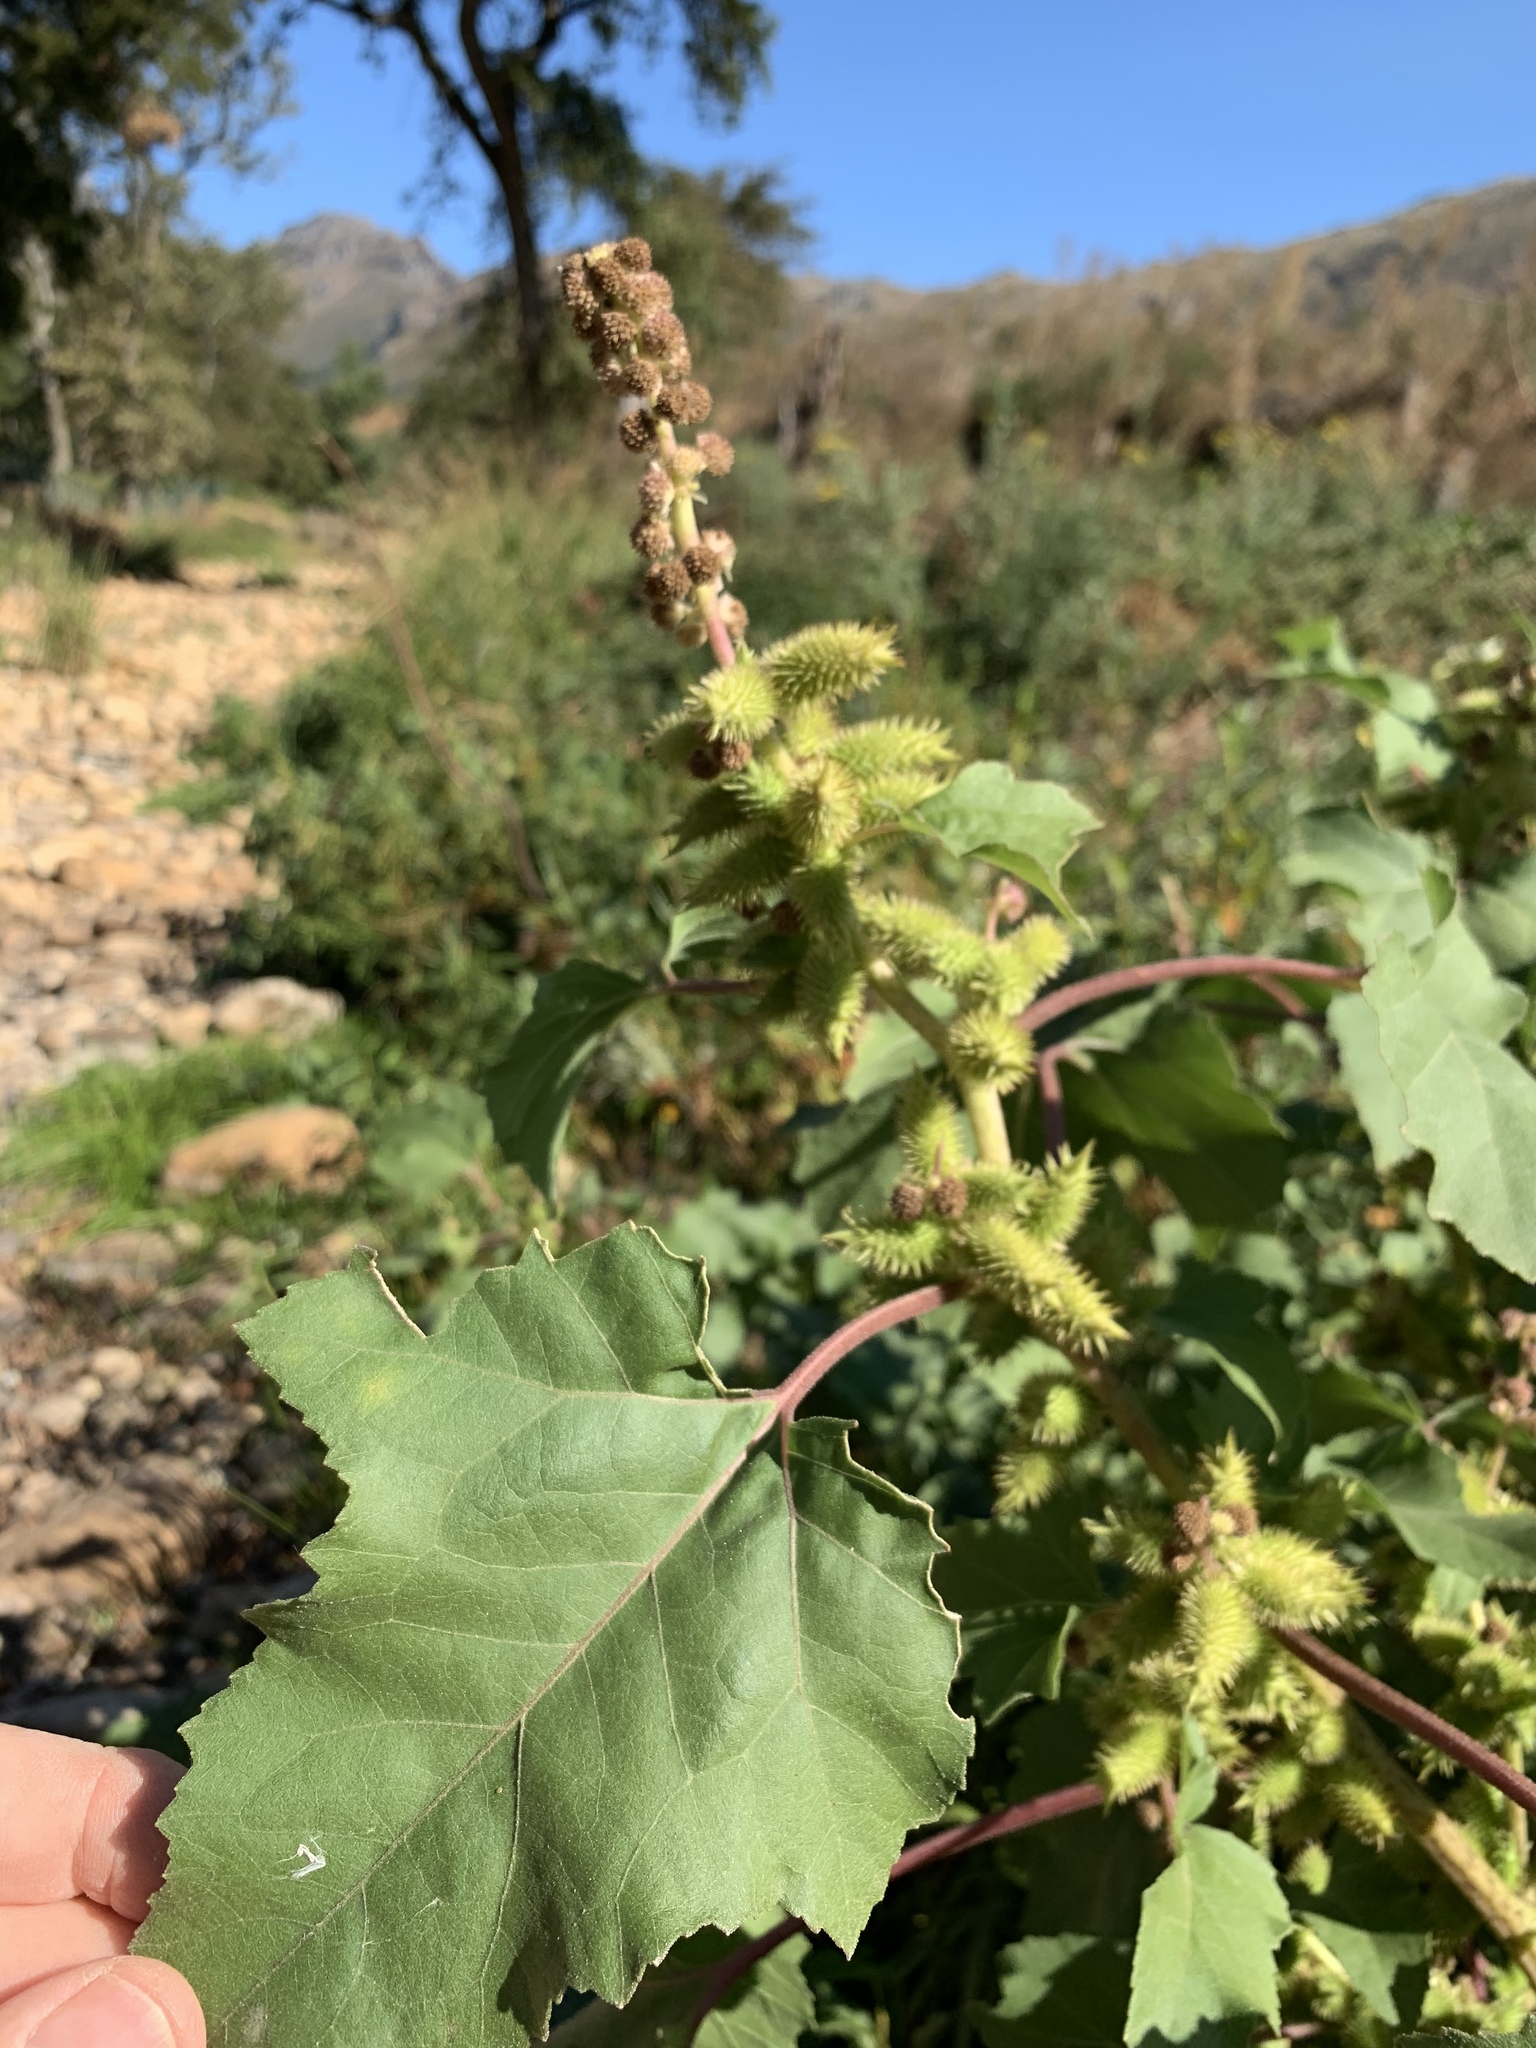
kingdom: Plantae
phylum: Tracheophyta
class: Magnoliopsida
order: Asterales
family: Asteraceae
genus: Xanthium
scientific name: Xanthium strumarium
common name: Rough cocklebur
